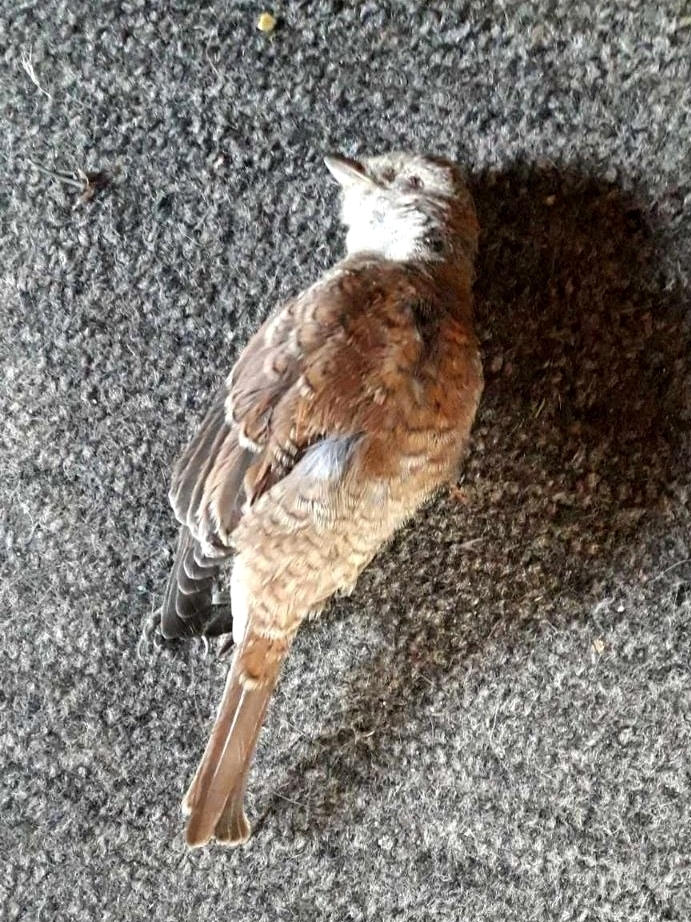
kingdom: Animalia
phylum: Chordata
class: Aves
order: Passeriformes
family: Laniidae
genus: Lanius
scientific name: Lanius collurio
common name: Red-backed shrike
